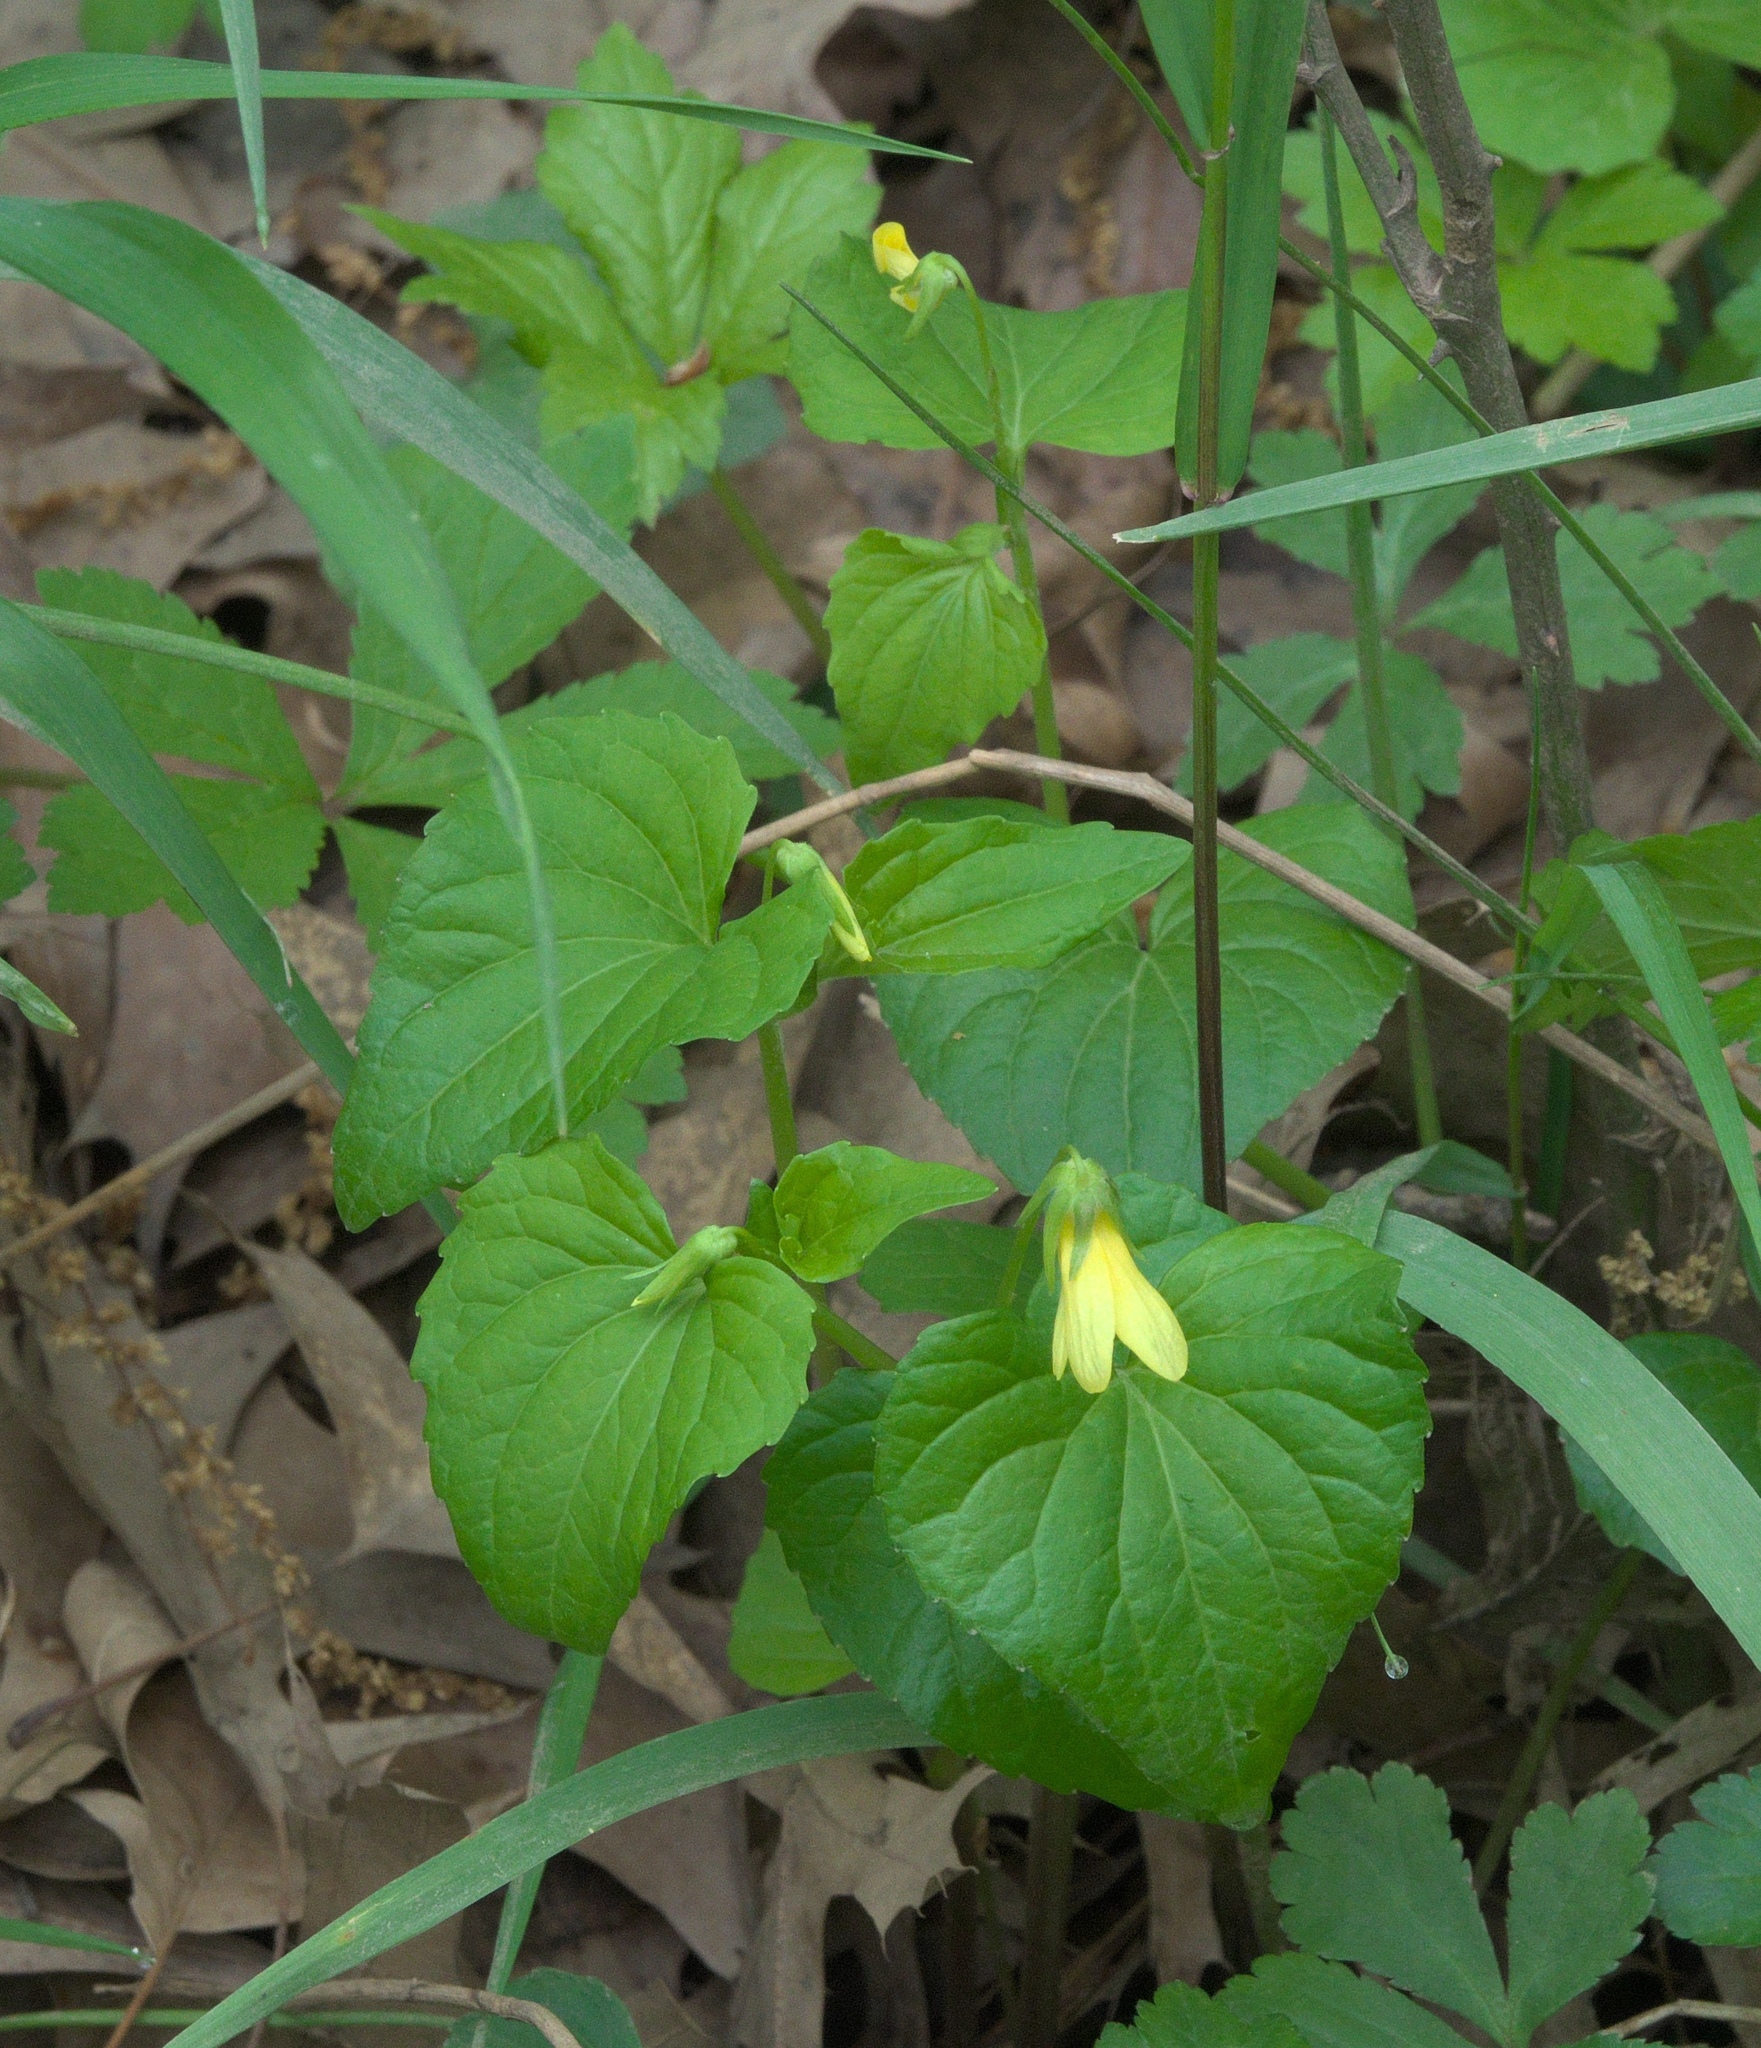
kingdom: Plantae
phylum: Tracheophyta
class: Magnoliopsida
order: Malpighiales
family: Violaceae
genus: Viola
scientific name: Viola eriocarpa
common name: Smooth yellow violet
